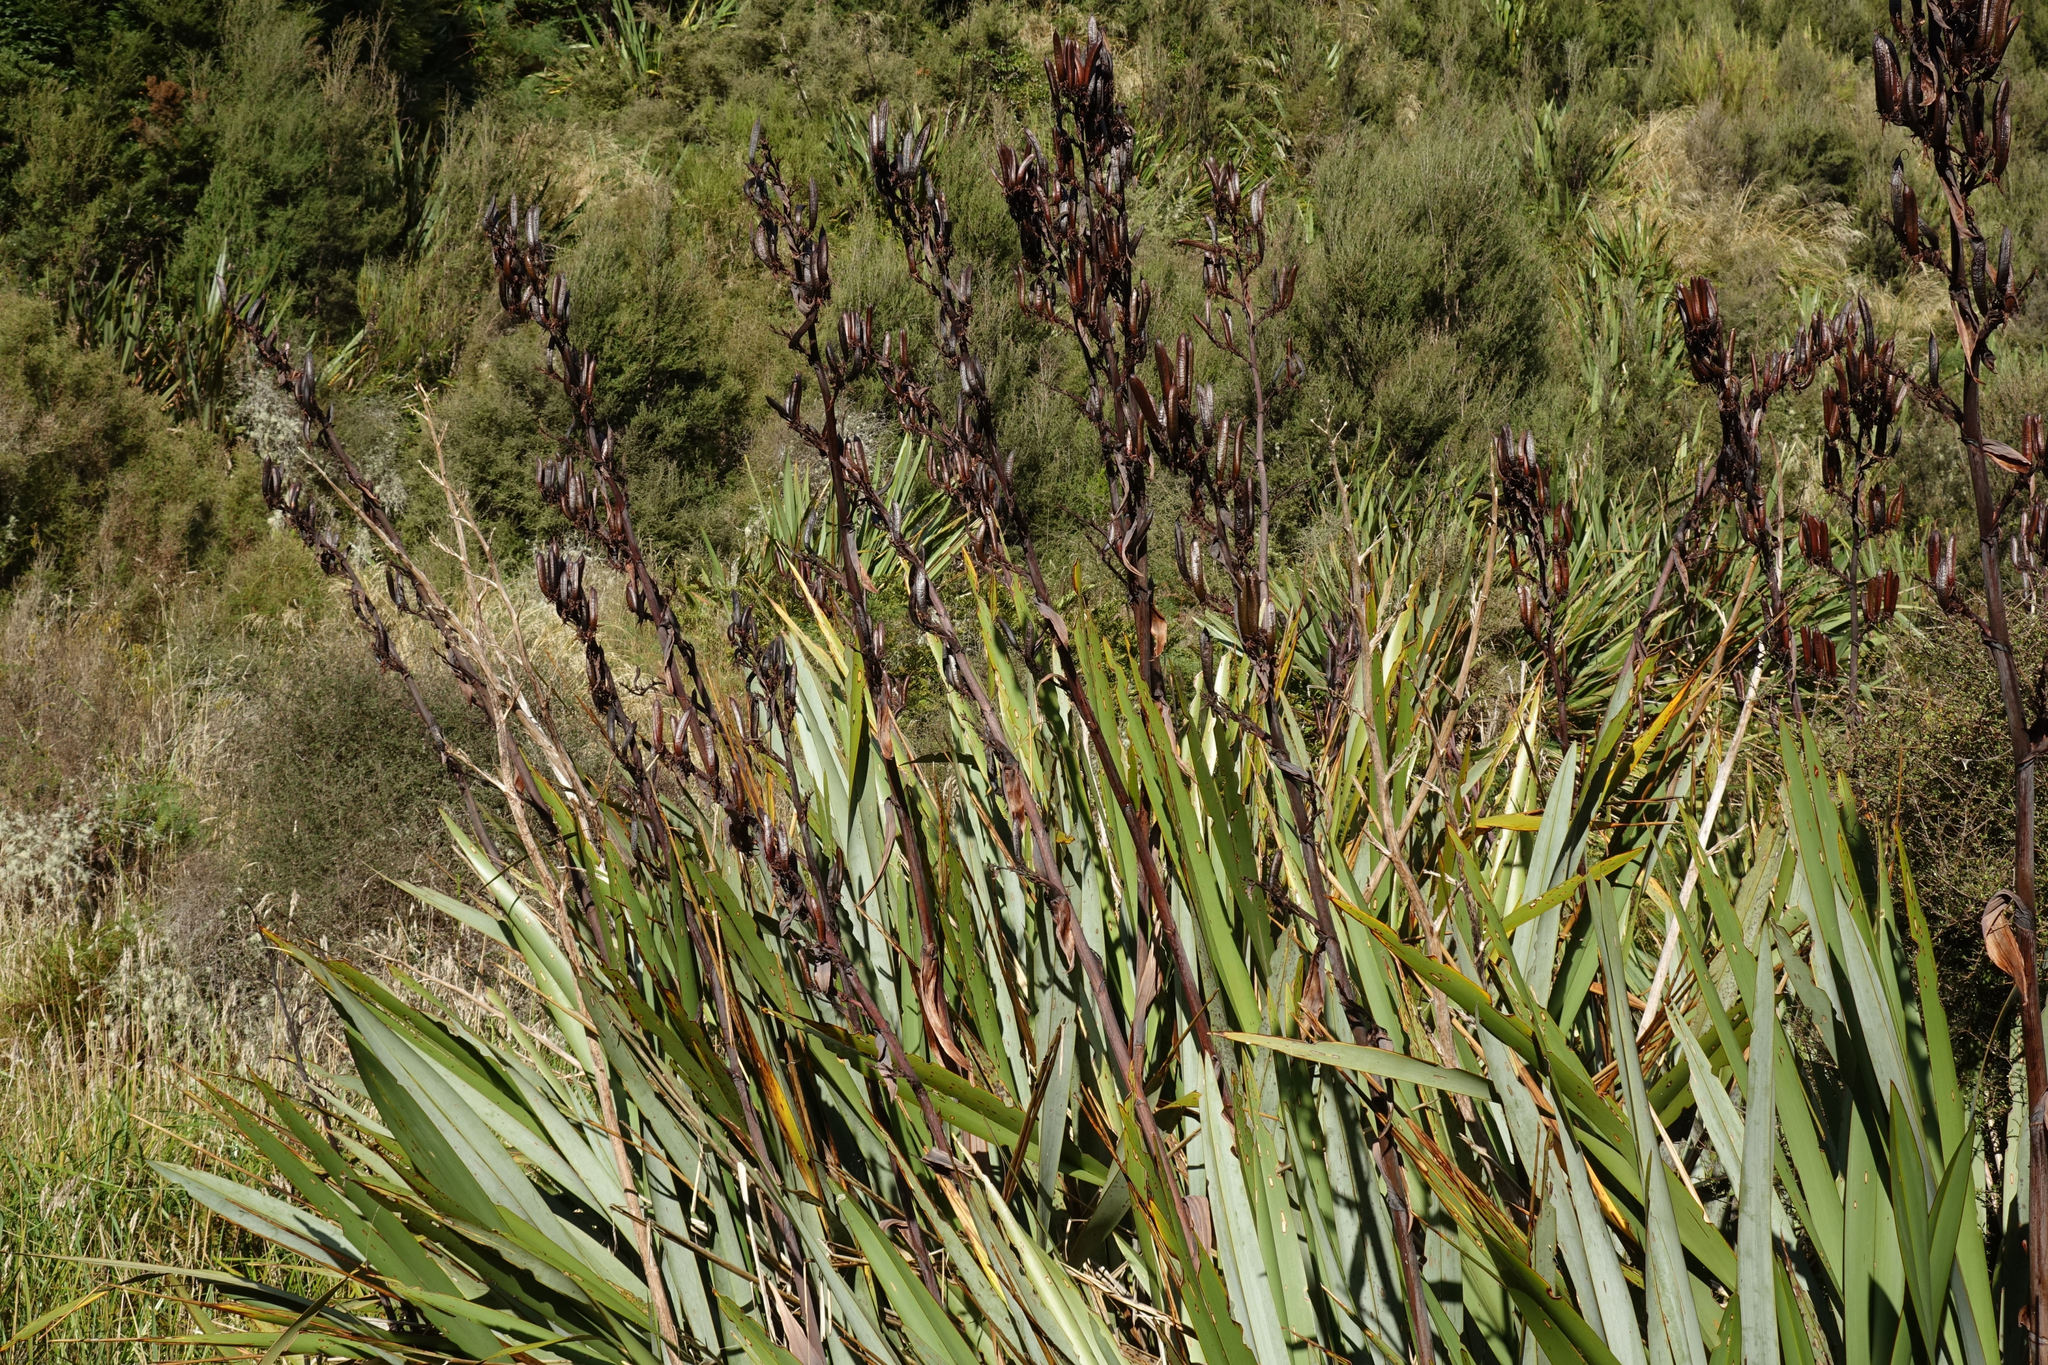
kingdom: Plantae
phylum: Tracheophyta
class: Liliopsida
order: Asparagales
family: Asphodelaceae
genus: Phormium
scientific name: Phormium tenax
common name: New zealand flax
